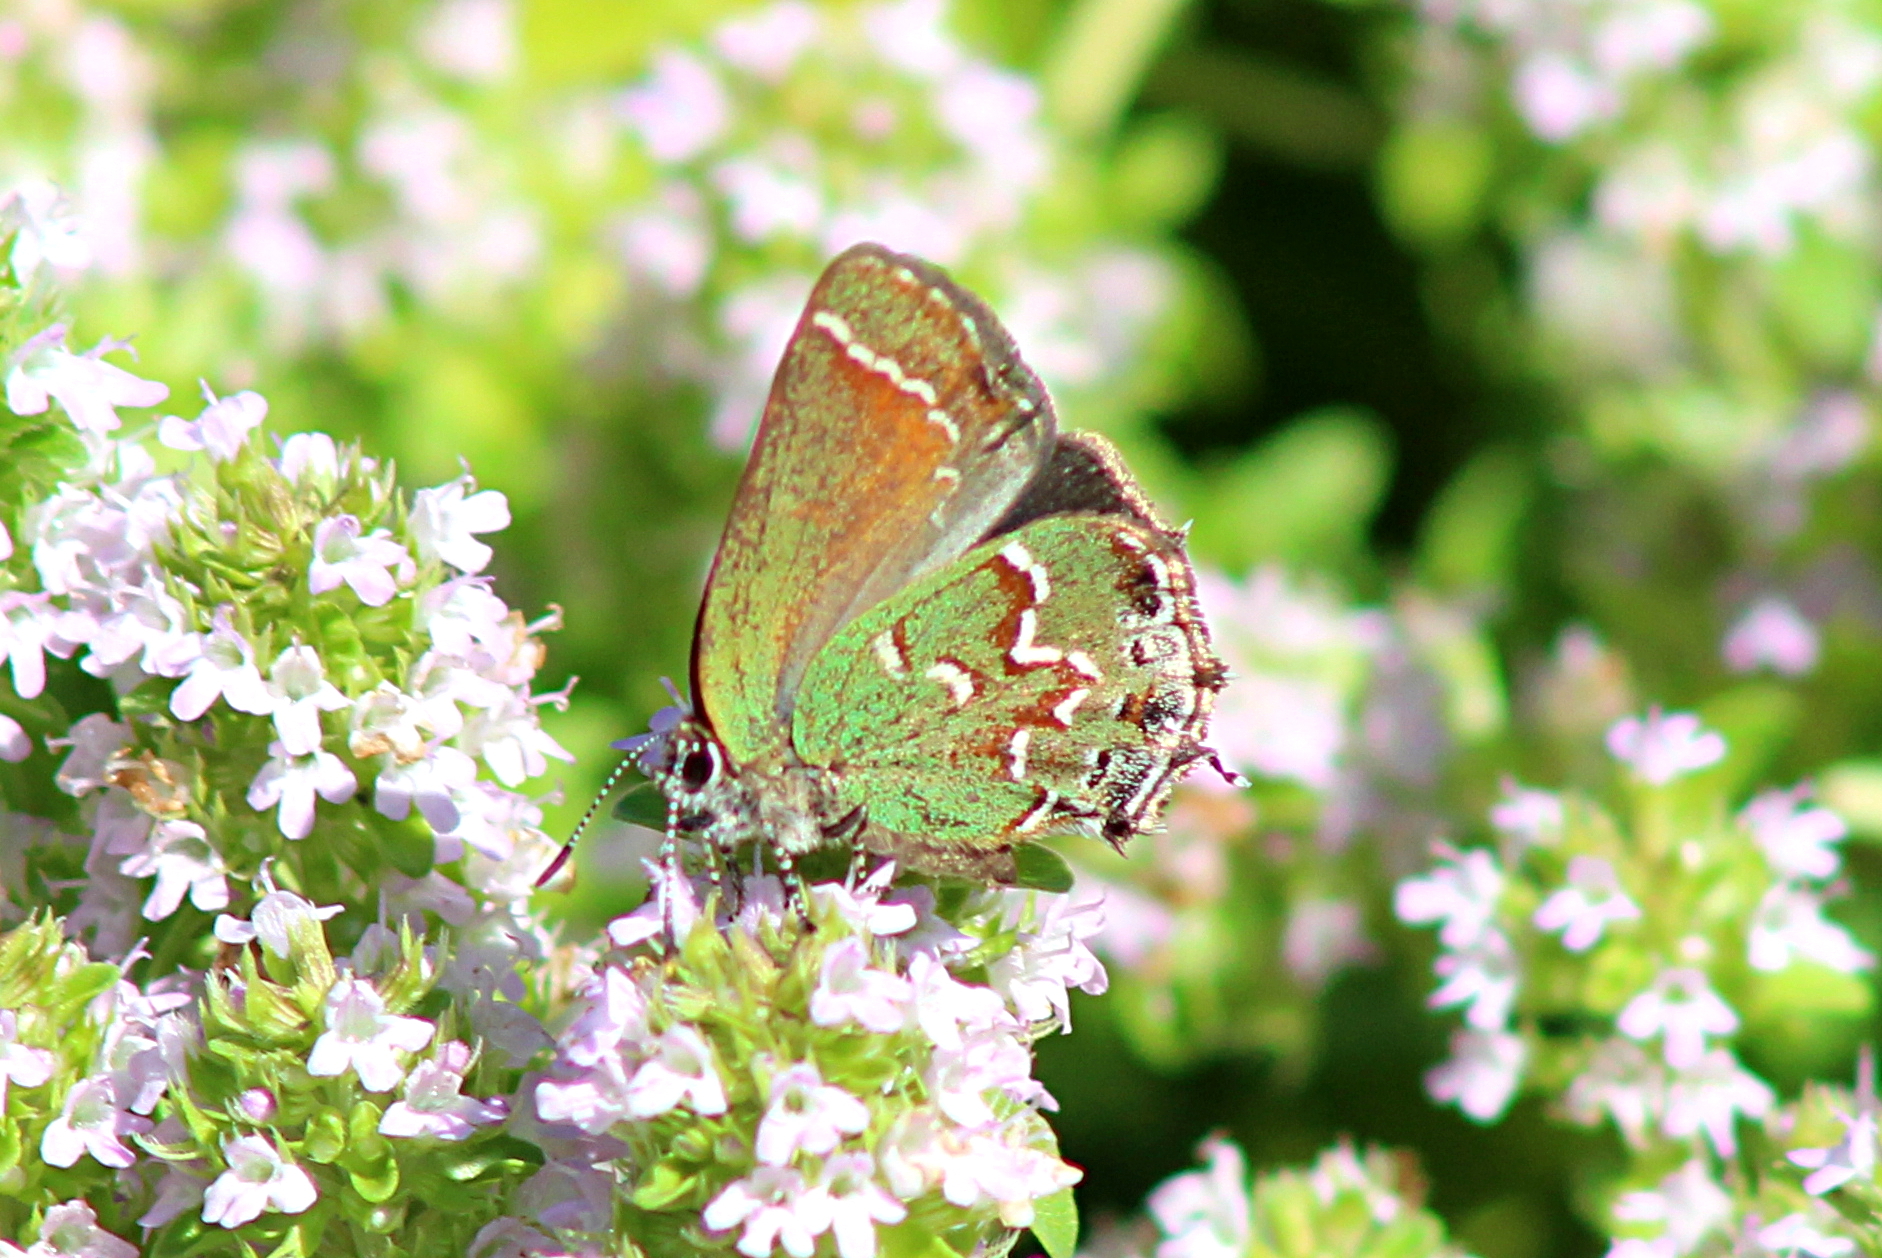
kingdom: Animalia
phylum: Arthropoda
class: Insecta
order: Lepidoptera
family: Lycaenidae
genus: Mitoura
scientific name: Mitoura gryneus
